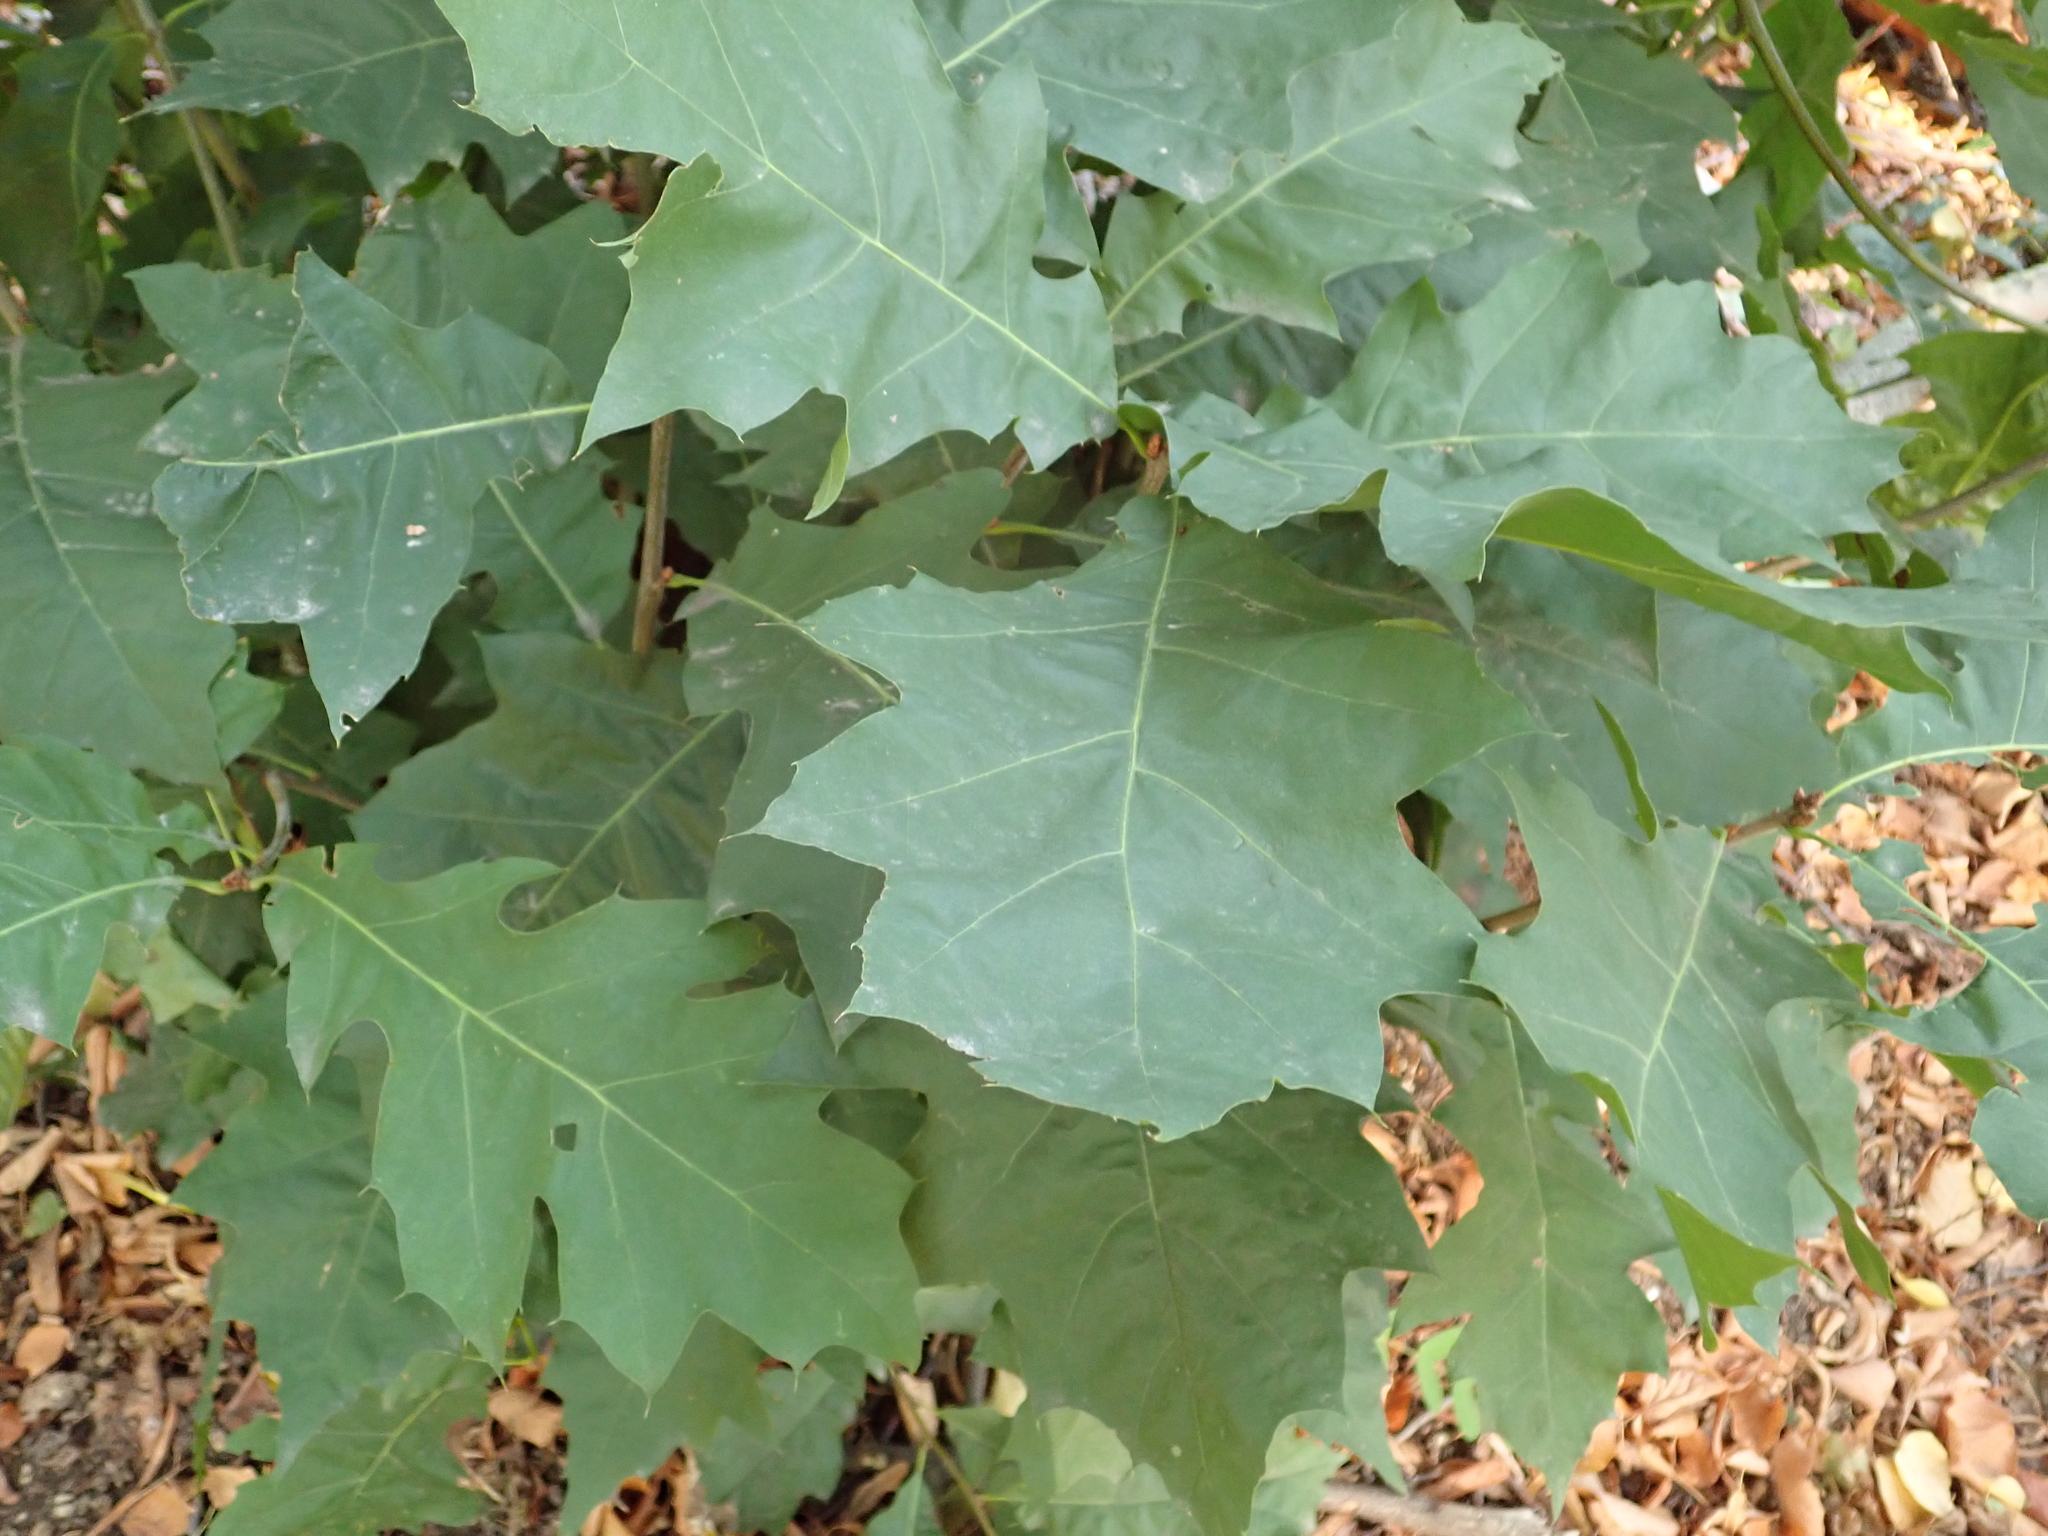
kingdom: Plantae
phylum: Tracheophyta
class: Magnoliopsida
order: Fagales
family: Fagaceae
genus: Quercus
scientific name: Quercus rubra
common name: Red oak
